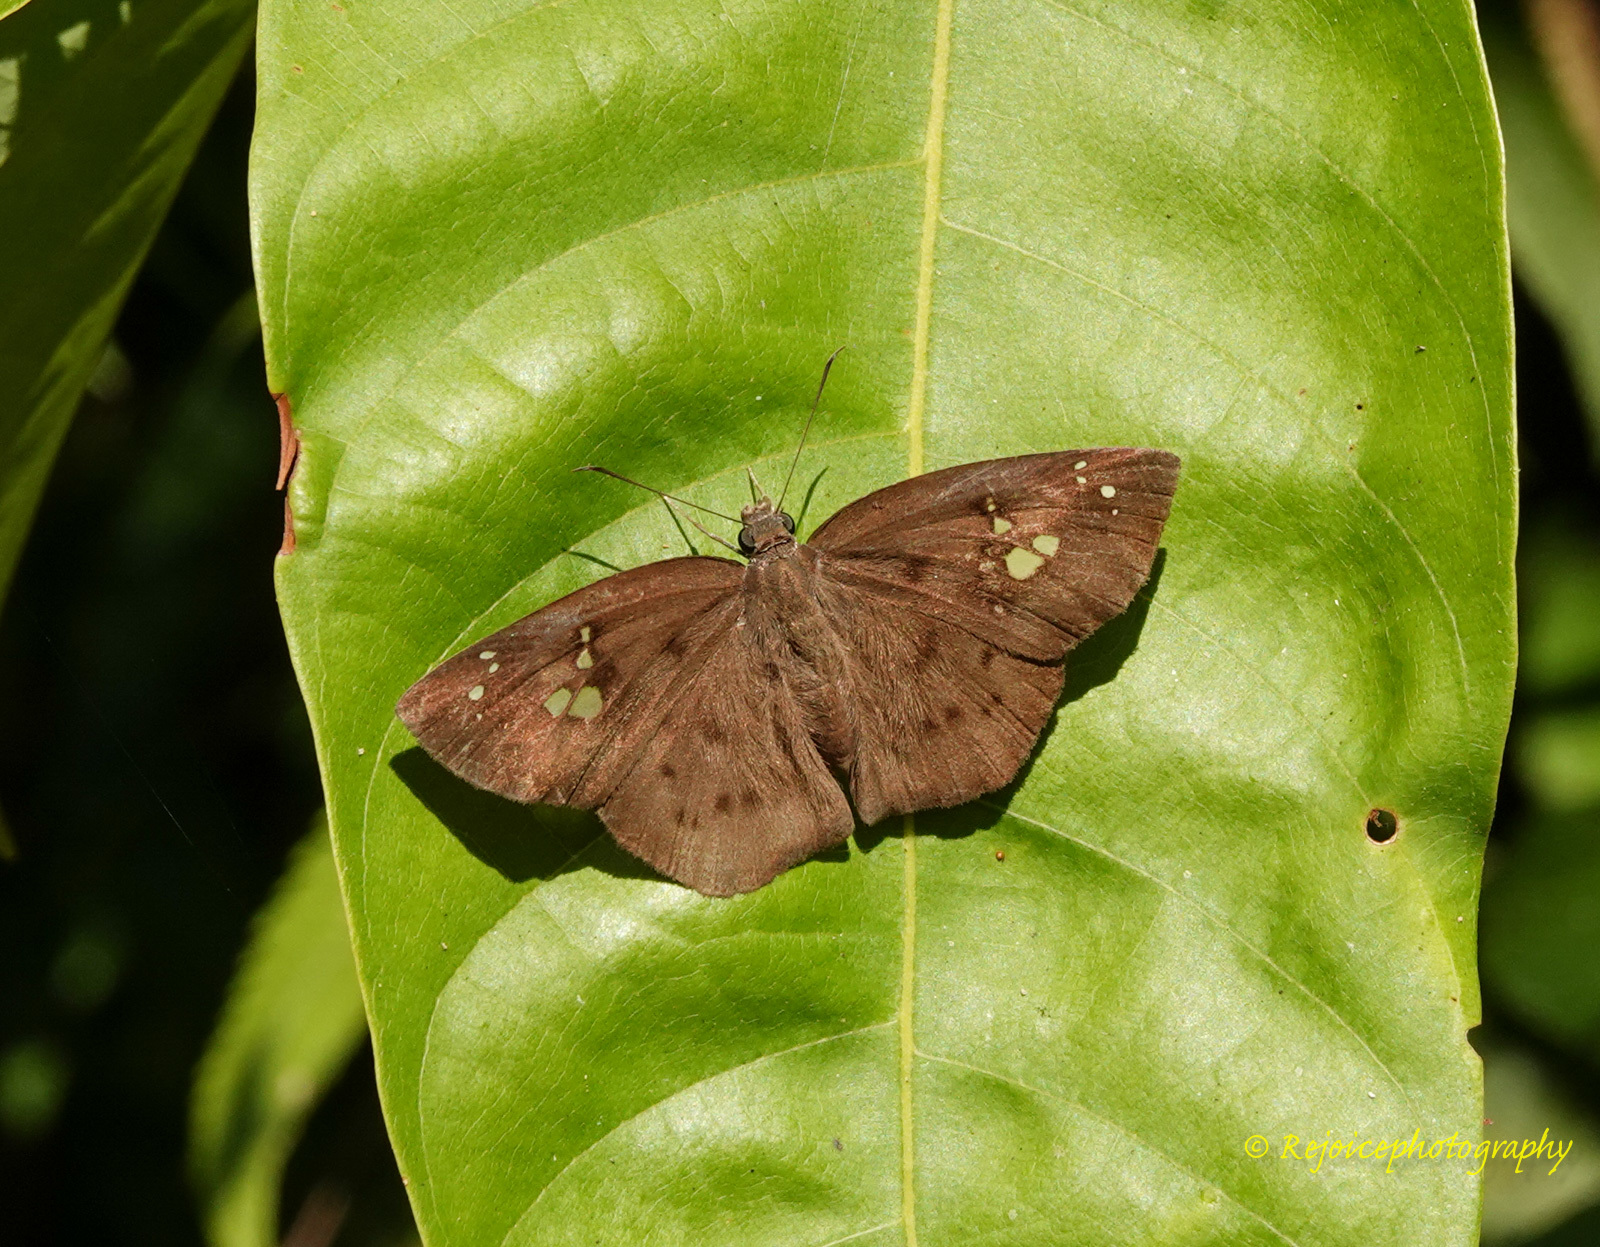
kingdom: Animalia
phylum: Arthropoda
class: Insecta
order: Lepidoptera
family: Hesperiidae
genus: Tagiades
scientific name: Tagiades japetus
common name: Pied flat
